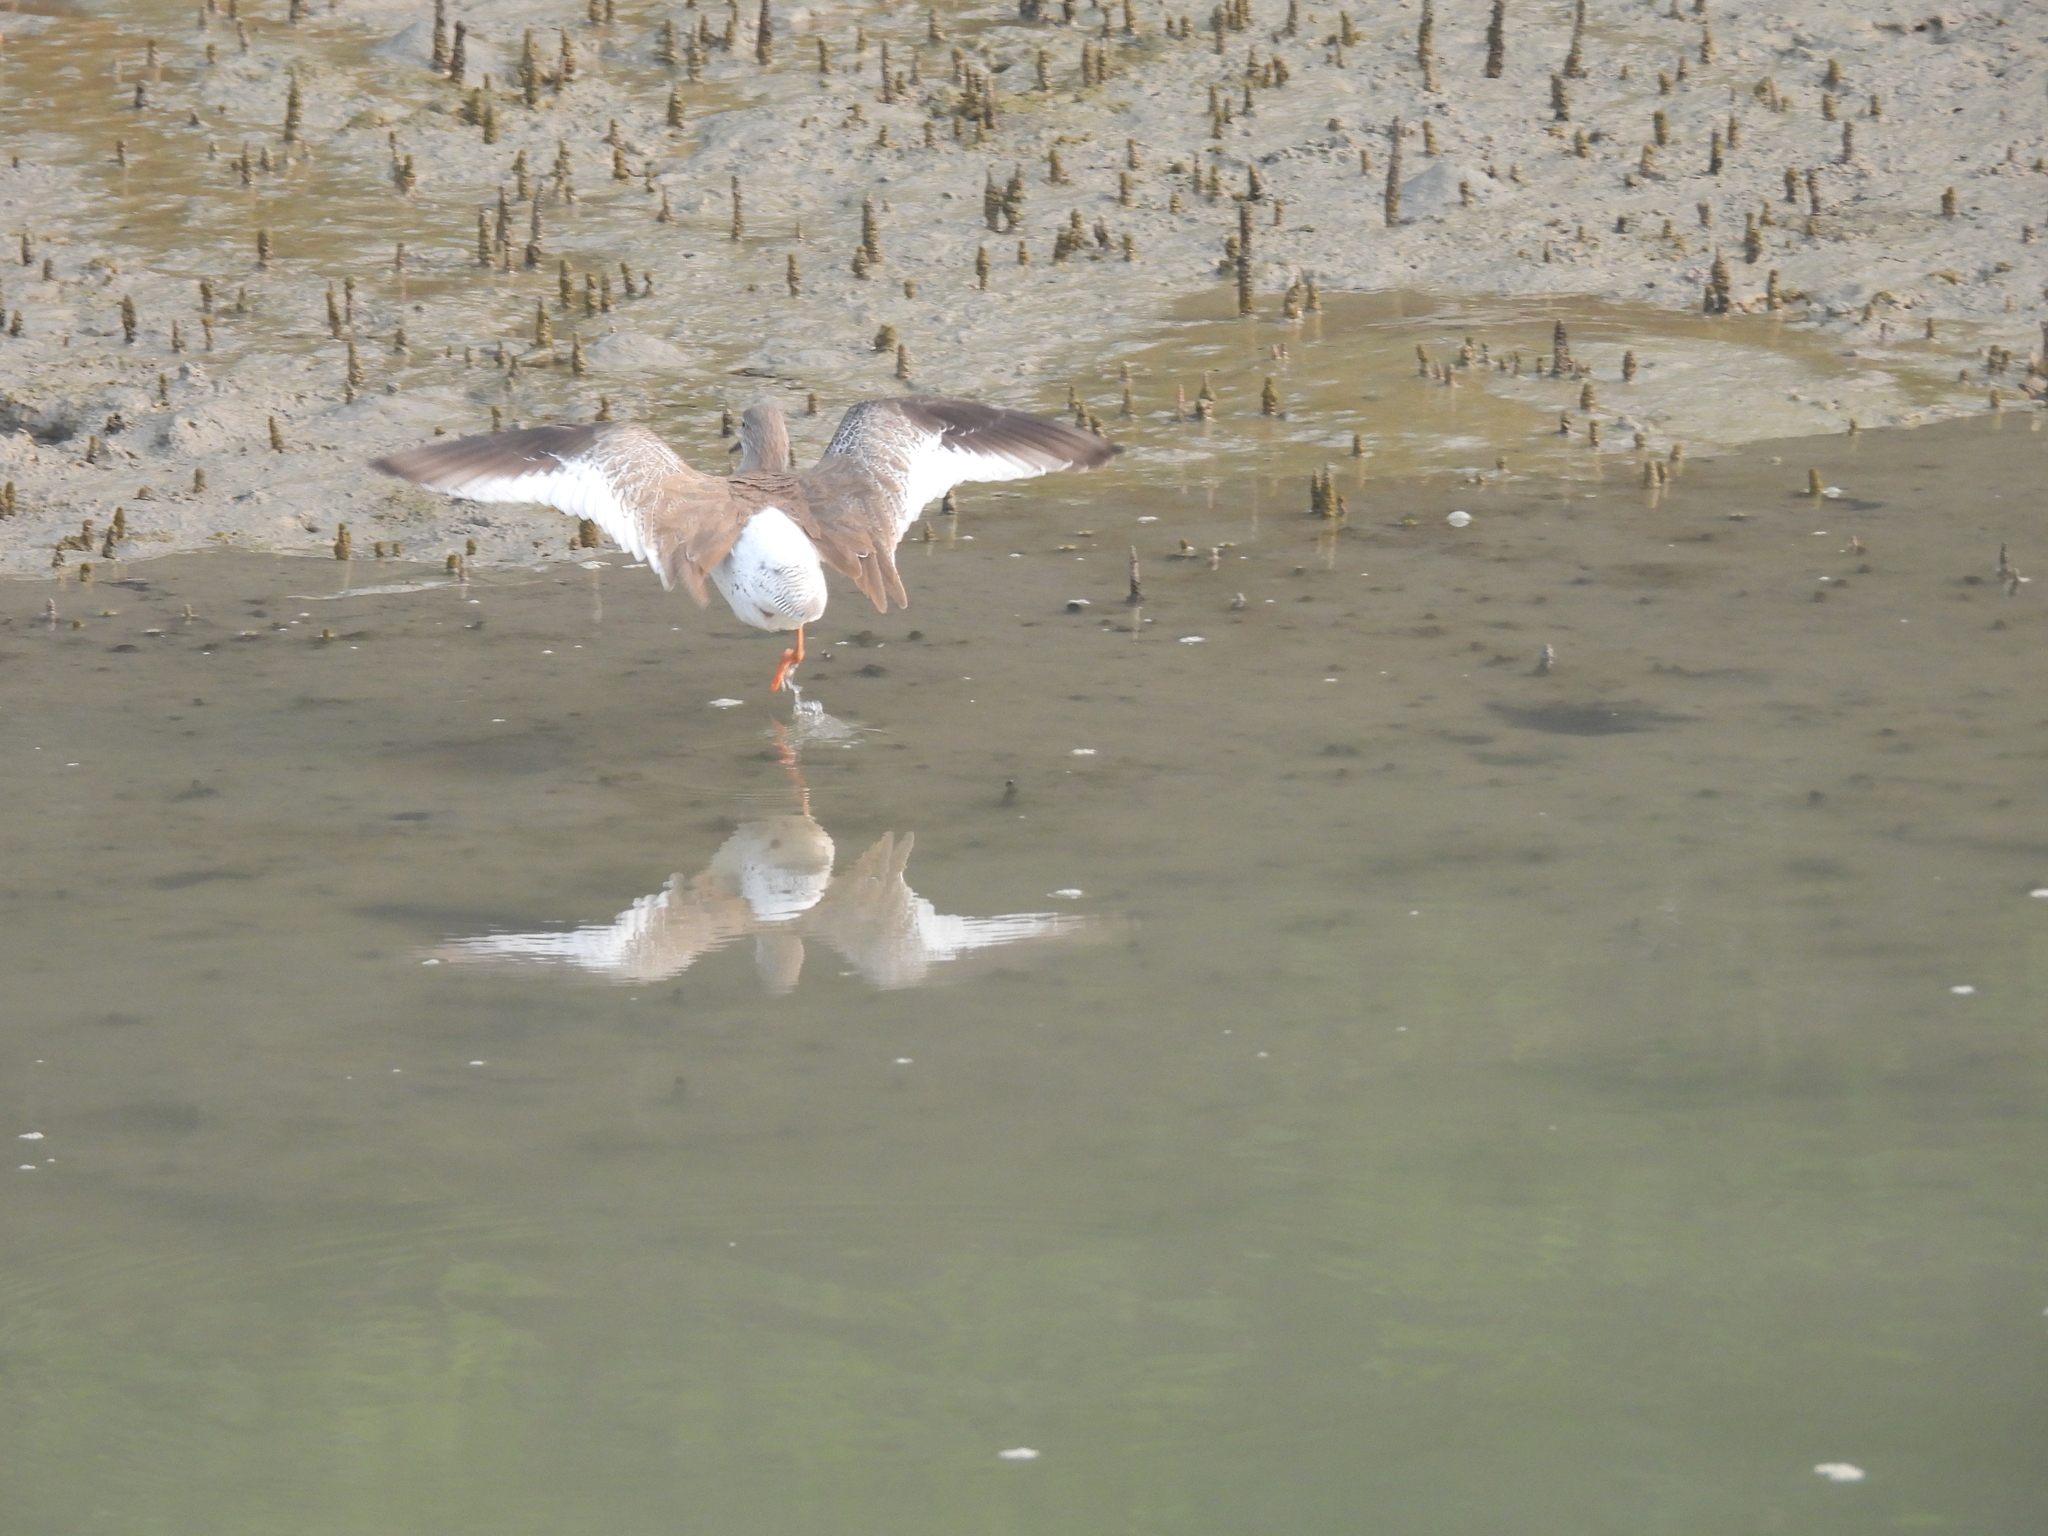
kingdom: Animalia
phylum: Chordata
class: Aves
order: Charadriiformes
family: Scolopacidae
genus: Tringa
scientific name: Tringa totanus
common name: Common redshank
